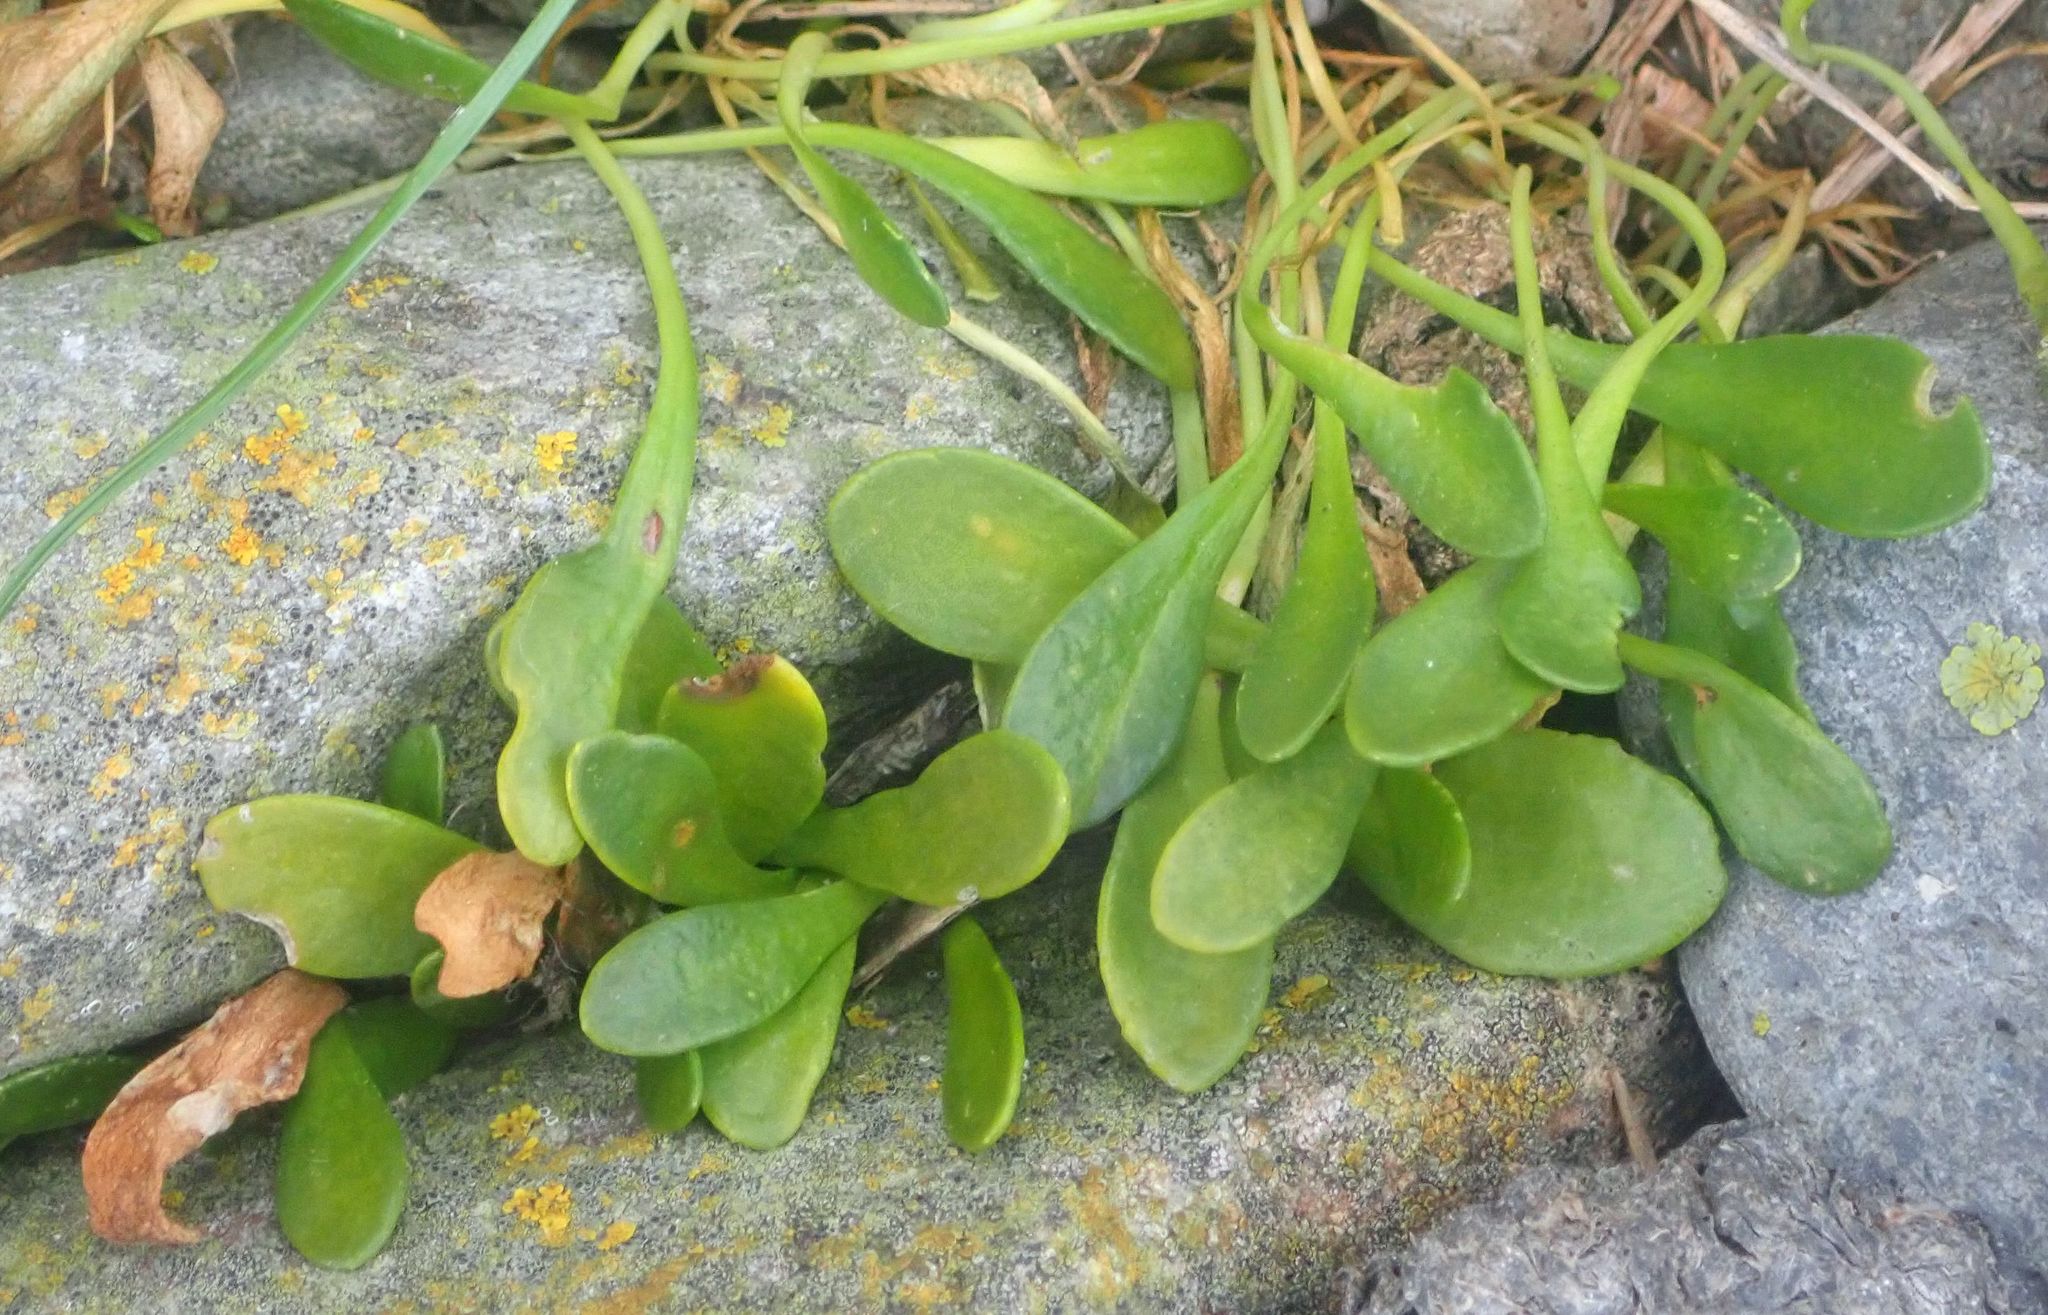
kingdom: Plantae
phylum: Tracheophyta
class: Magnoliopsida
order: Asterales
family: Goodeniaceae
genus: Goodenia
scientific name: Goodenia radicans
